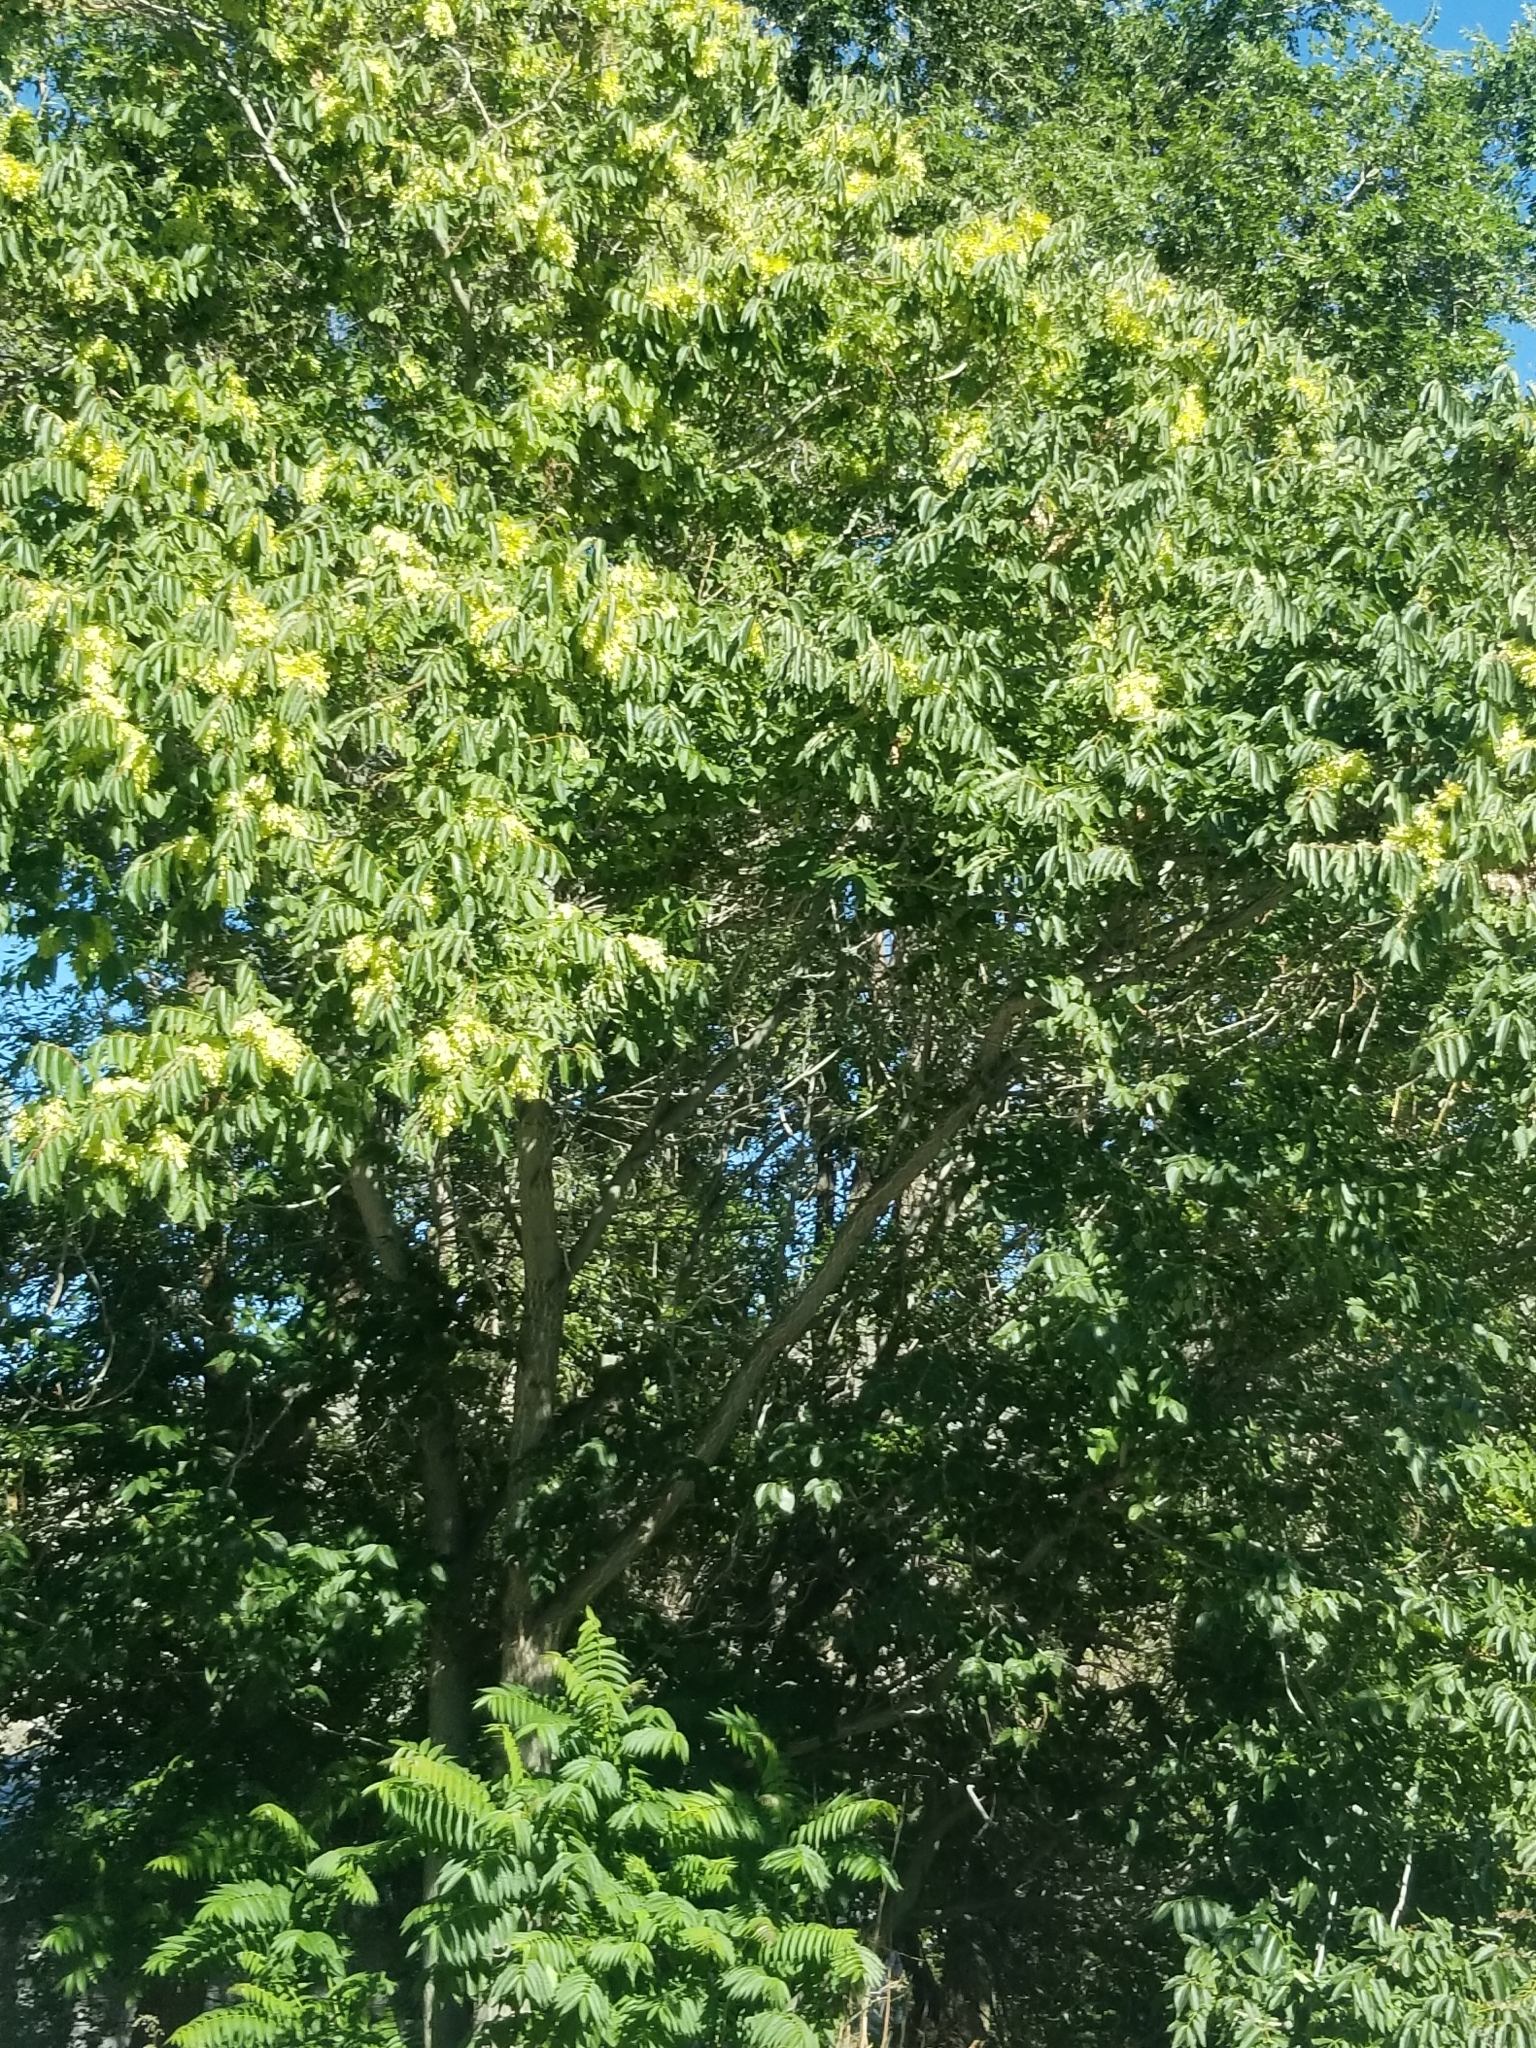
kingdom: Plantae
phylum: Tracheophyta
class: Magnoliopsida
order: Sapindales
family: Simaroubaceae
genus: Ailanthus
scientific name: Ailanthus altissima
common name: Tree-of-heaven
